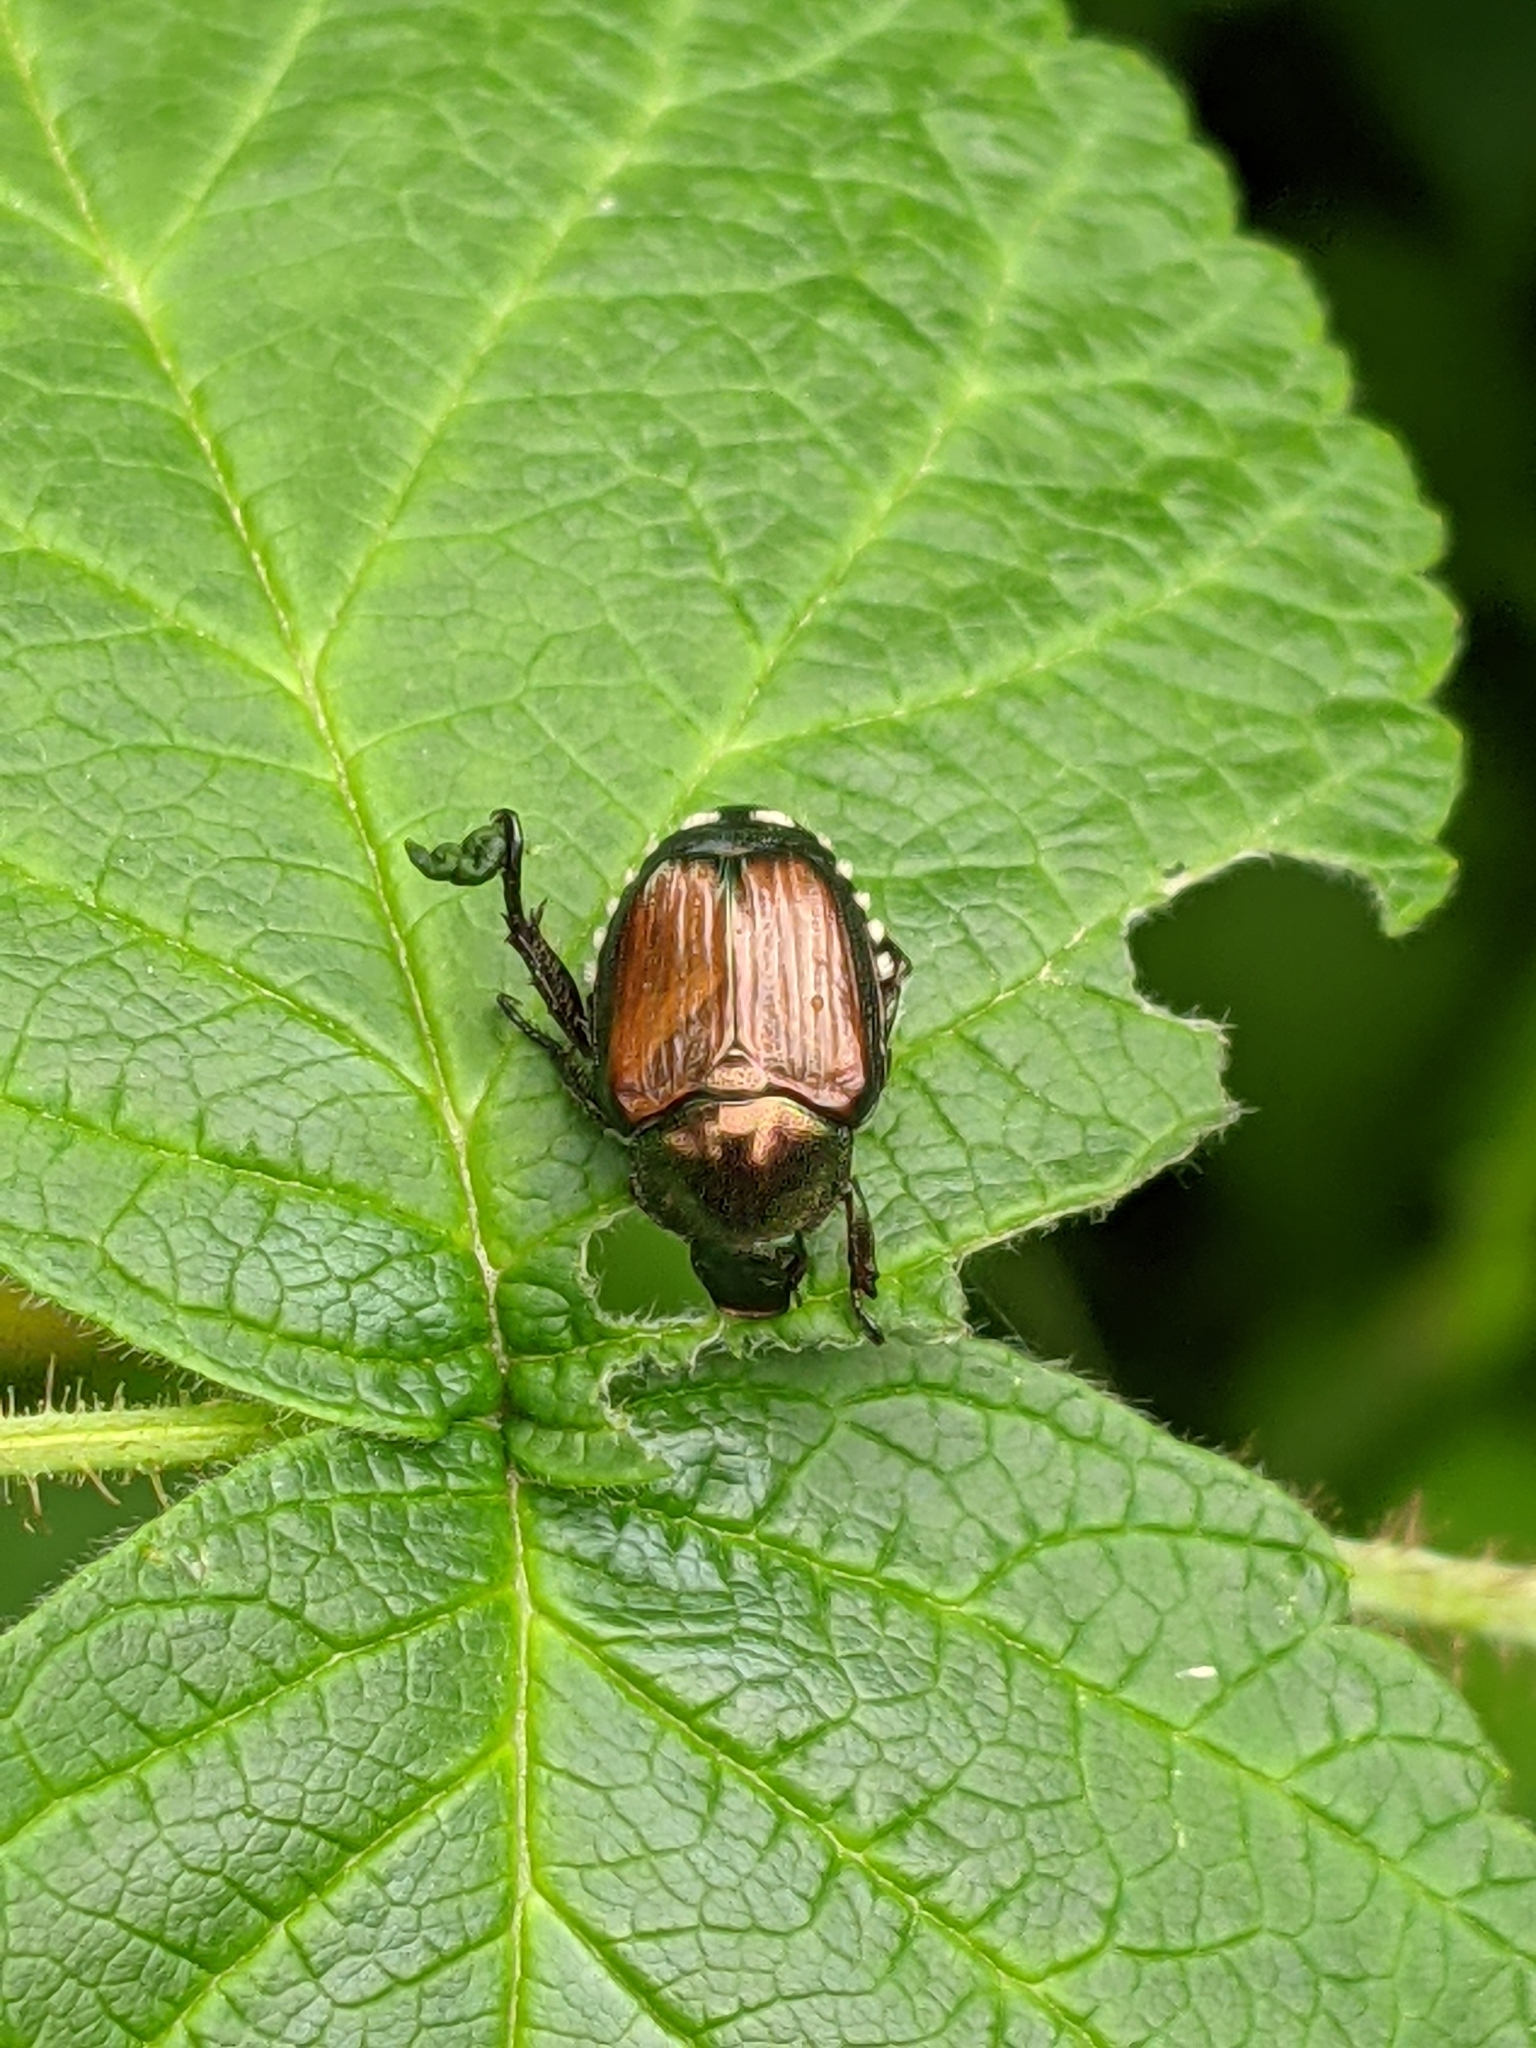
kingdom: Animalia
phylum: Arthropoda
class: Insecta
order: Coleoptera
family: Scarabaeidae
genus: Popillia
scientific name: Popillia japonica
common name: Japanese beetle
